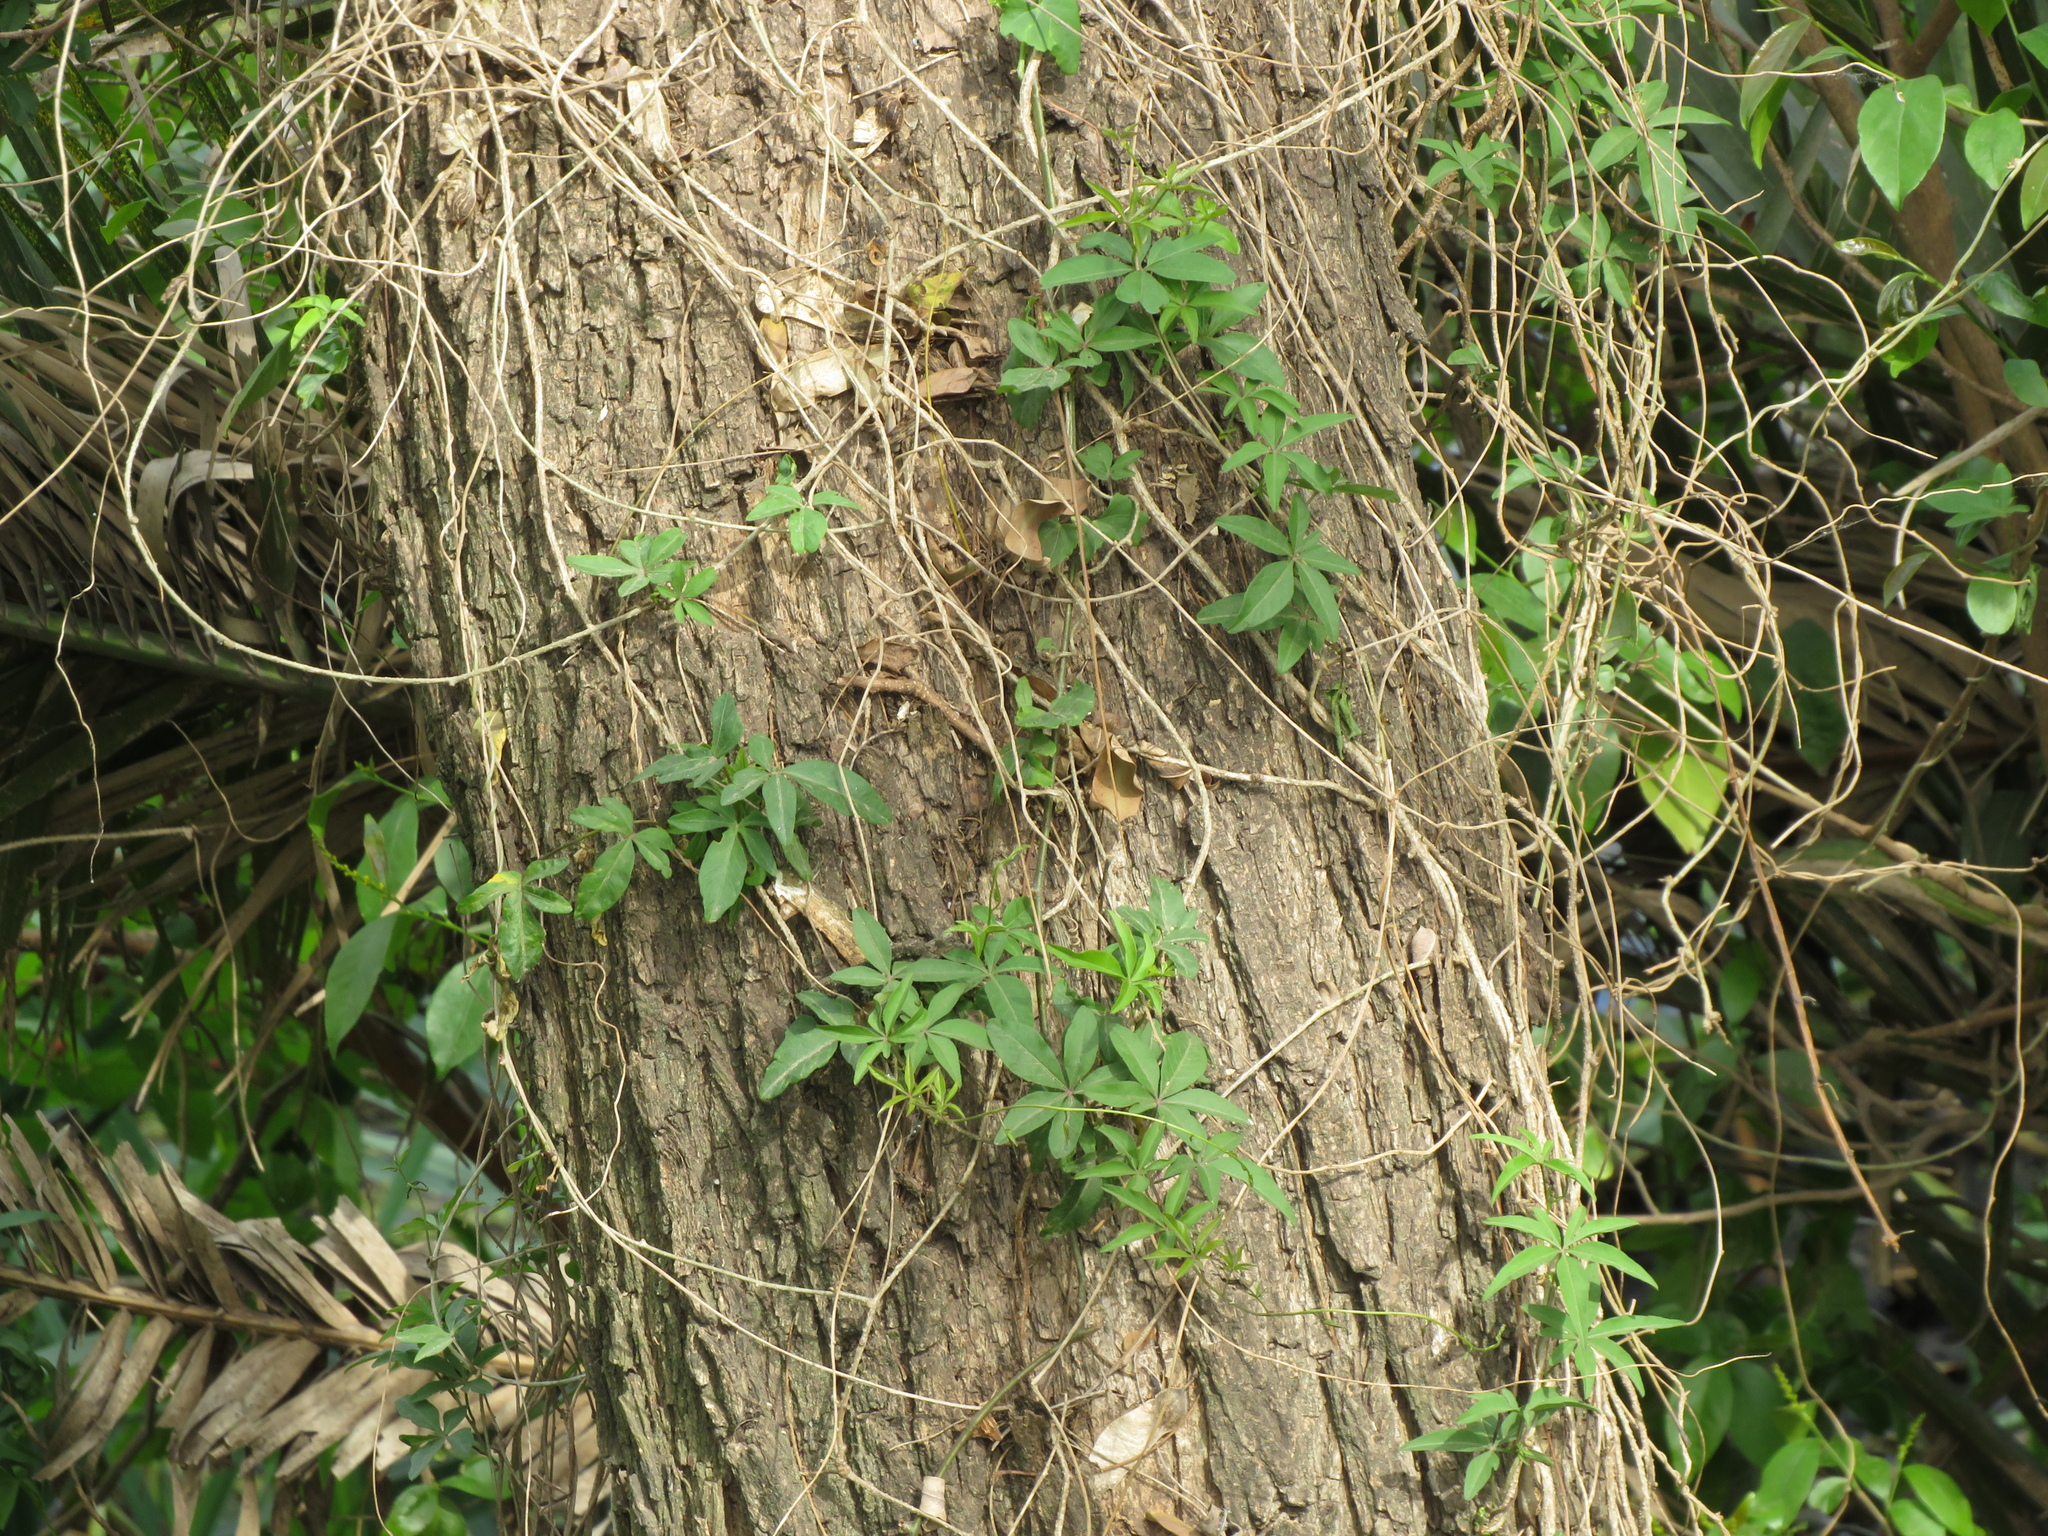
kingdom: Plantae
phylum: Tracheophyta
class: Magnoliopsida
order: Solanales
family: Convolvulaceae
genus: Ipomoea
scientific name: Ipomoea cairica
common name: Mile a minute vine
